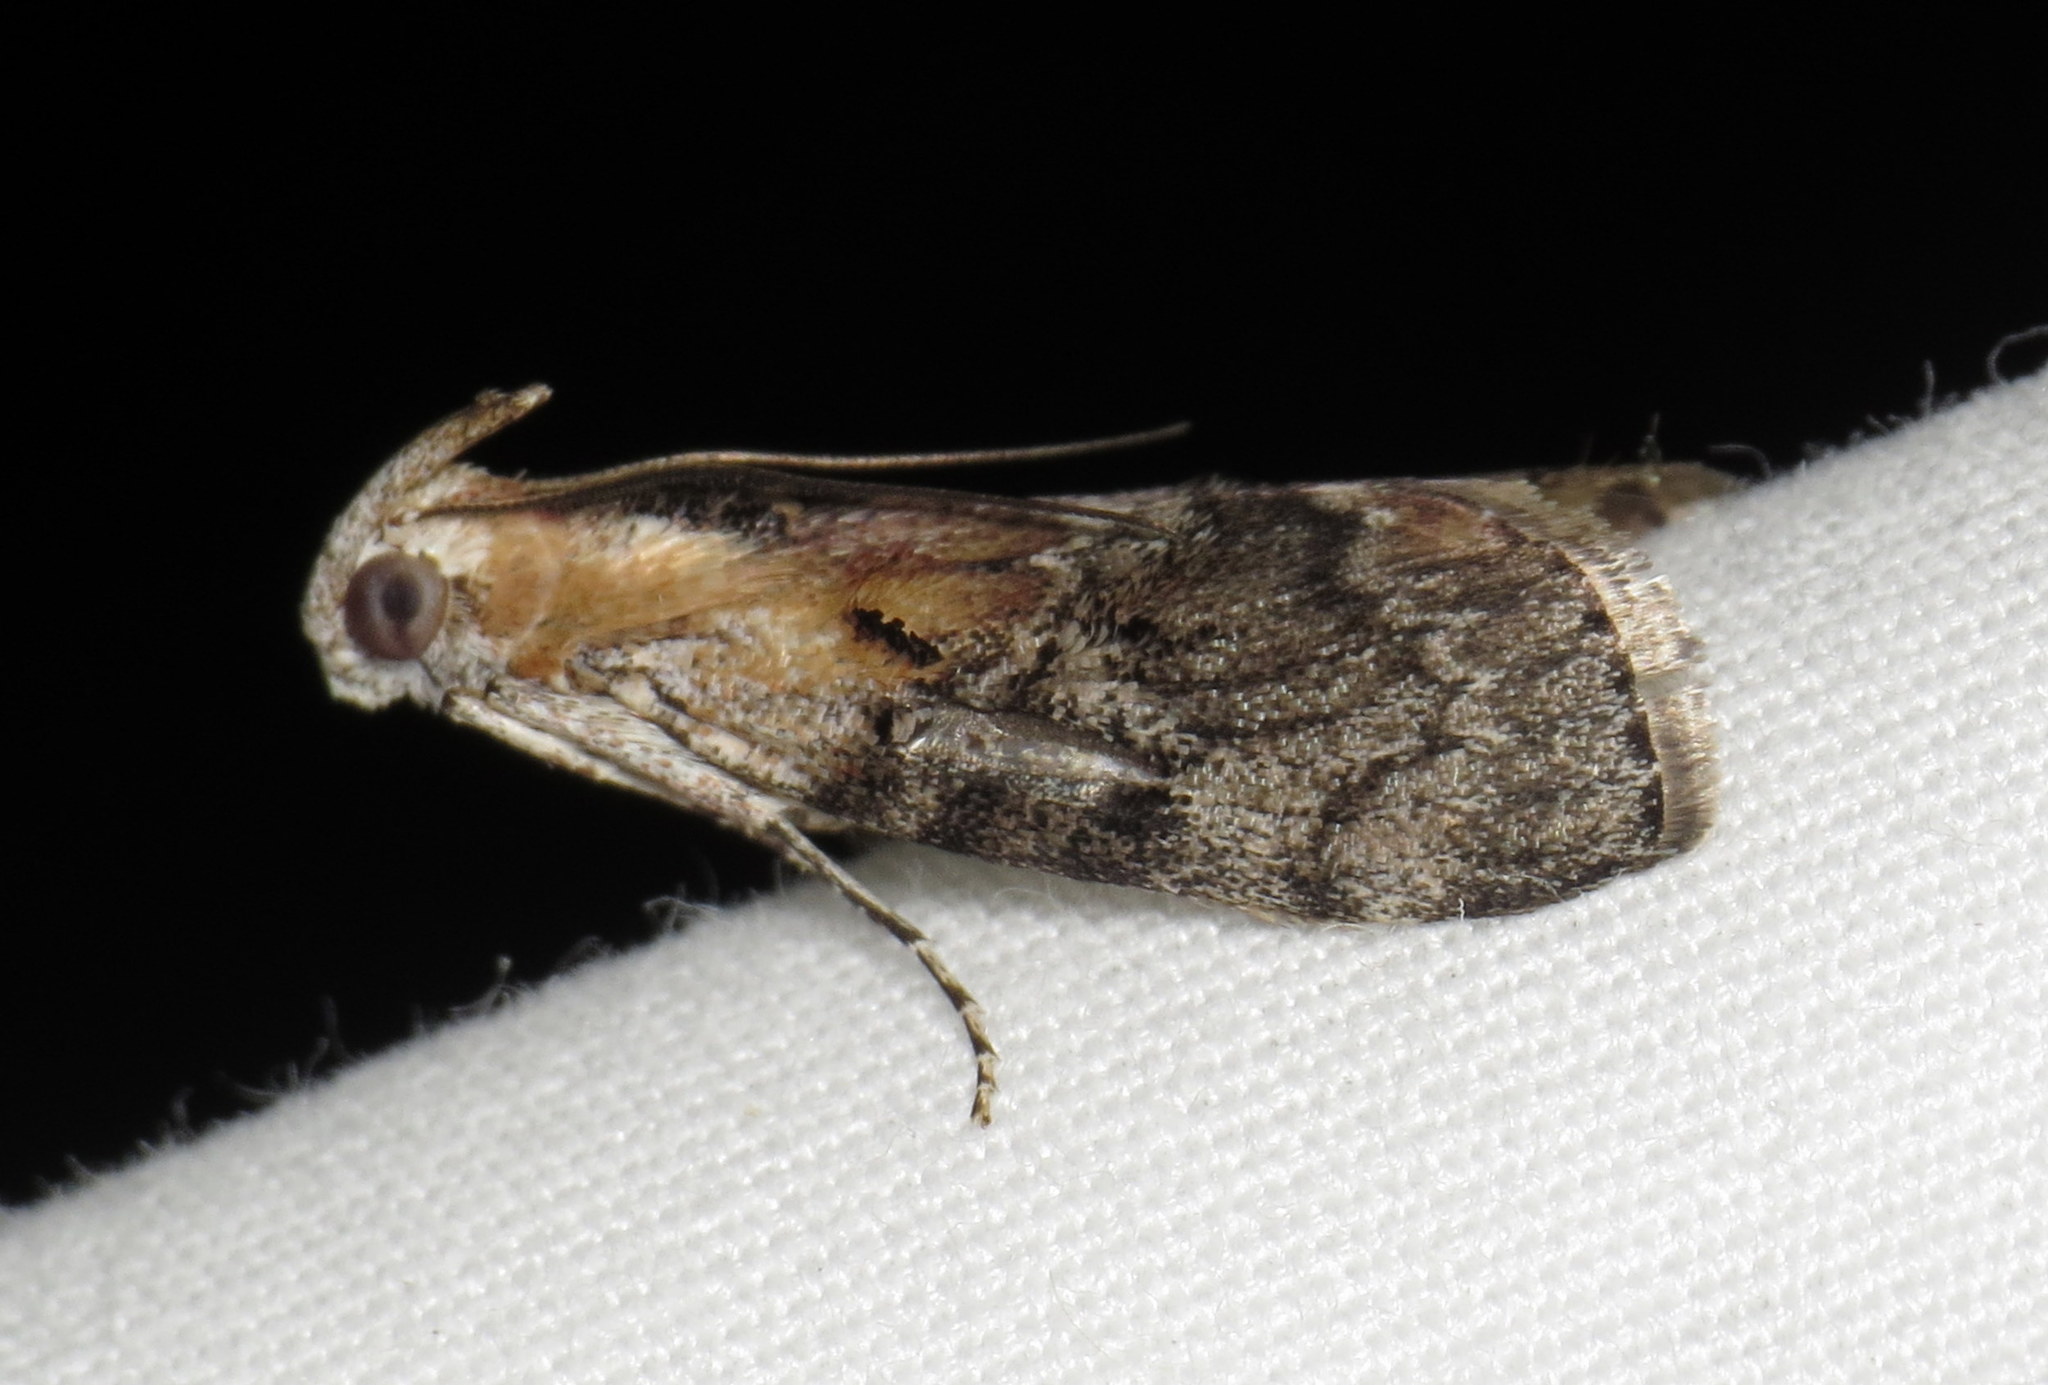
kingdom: Animalia
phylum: Arthropoda
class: Insecta
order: Lepidoptera
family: Pyralidae
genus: Pococera
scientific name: Pococera expandens
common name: Striped oak webworm moth
